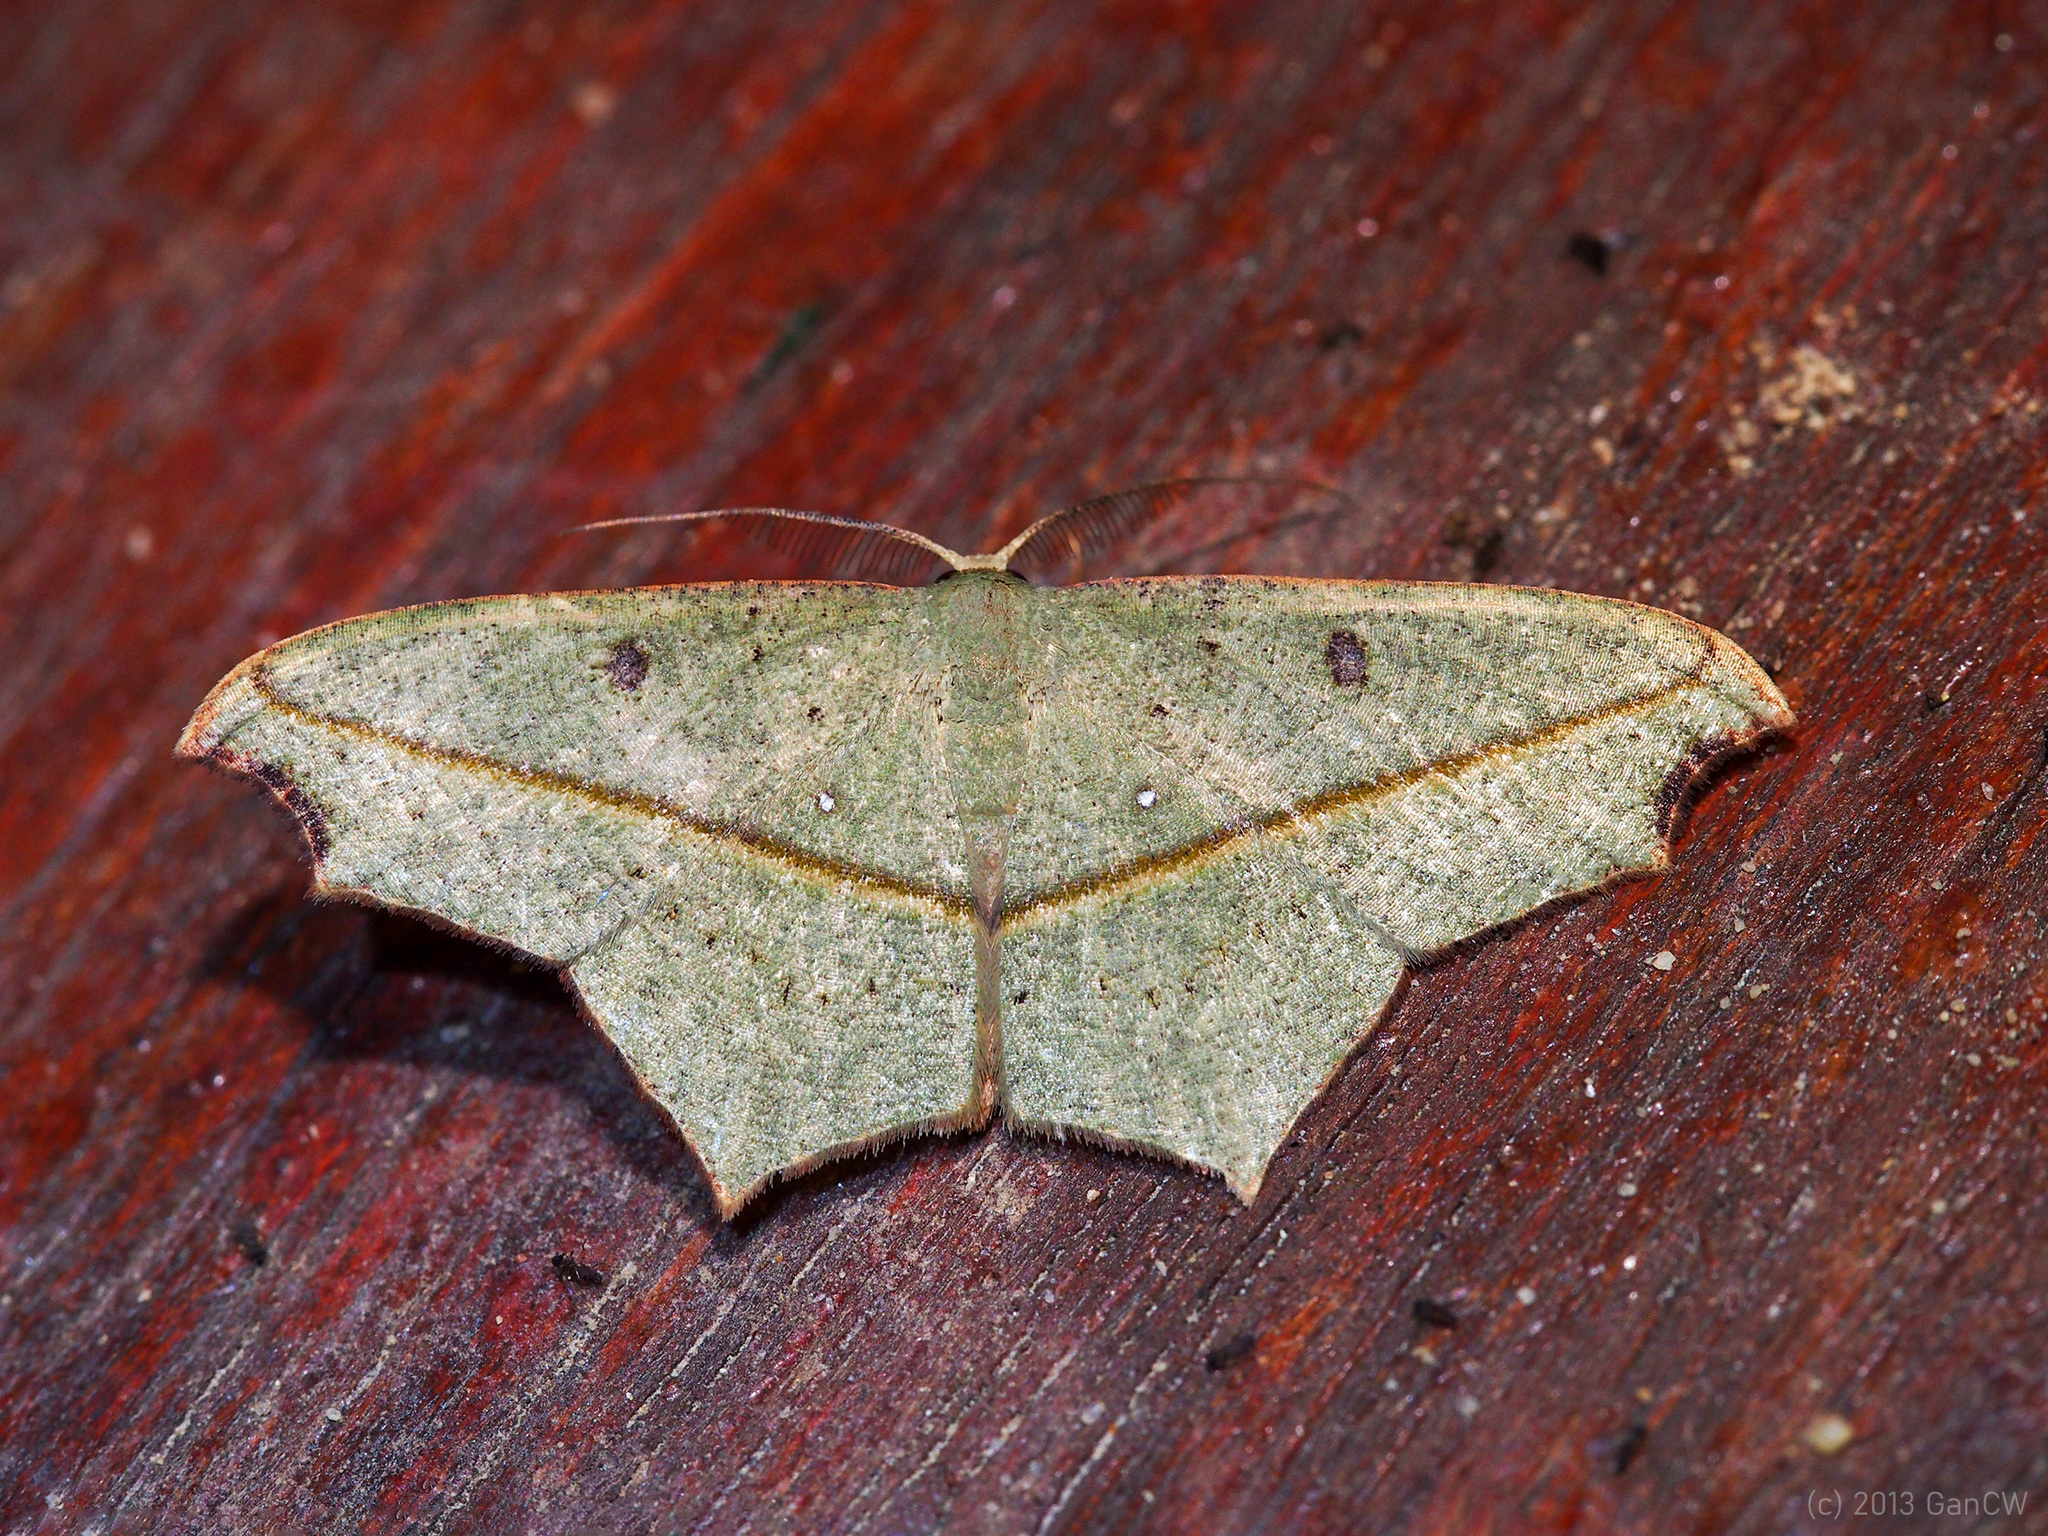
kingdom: Animalia
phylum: Arthropoda
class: Insecta
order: Lepidoptera
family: Geometridae
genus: Traminda
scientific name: Traminda aventiaria
